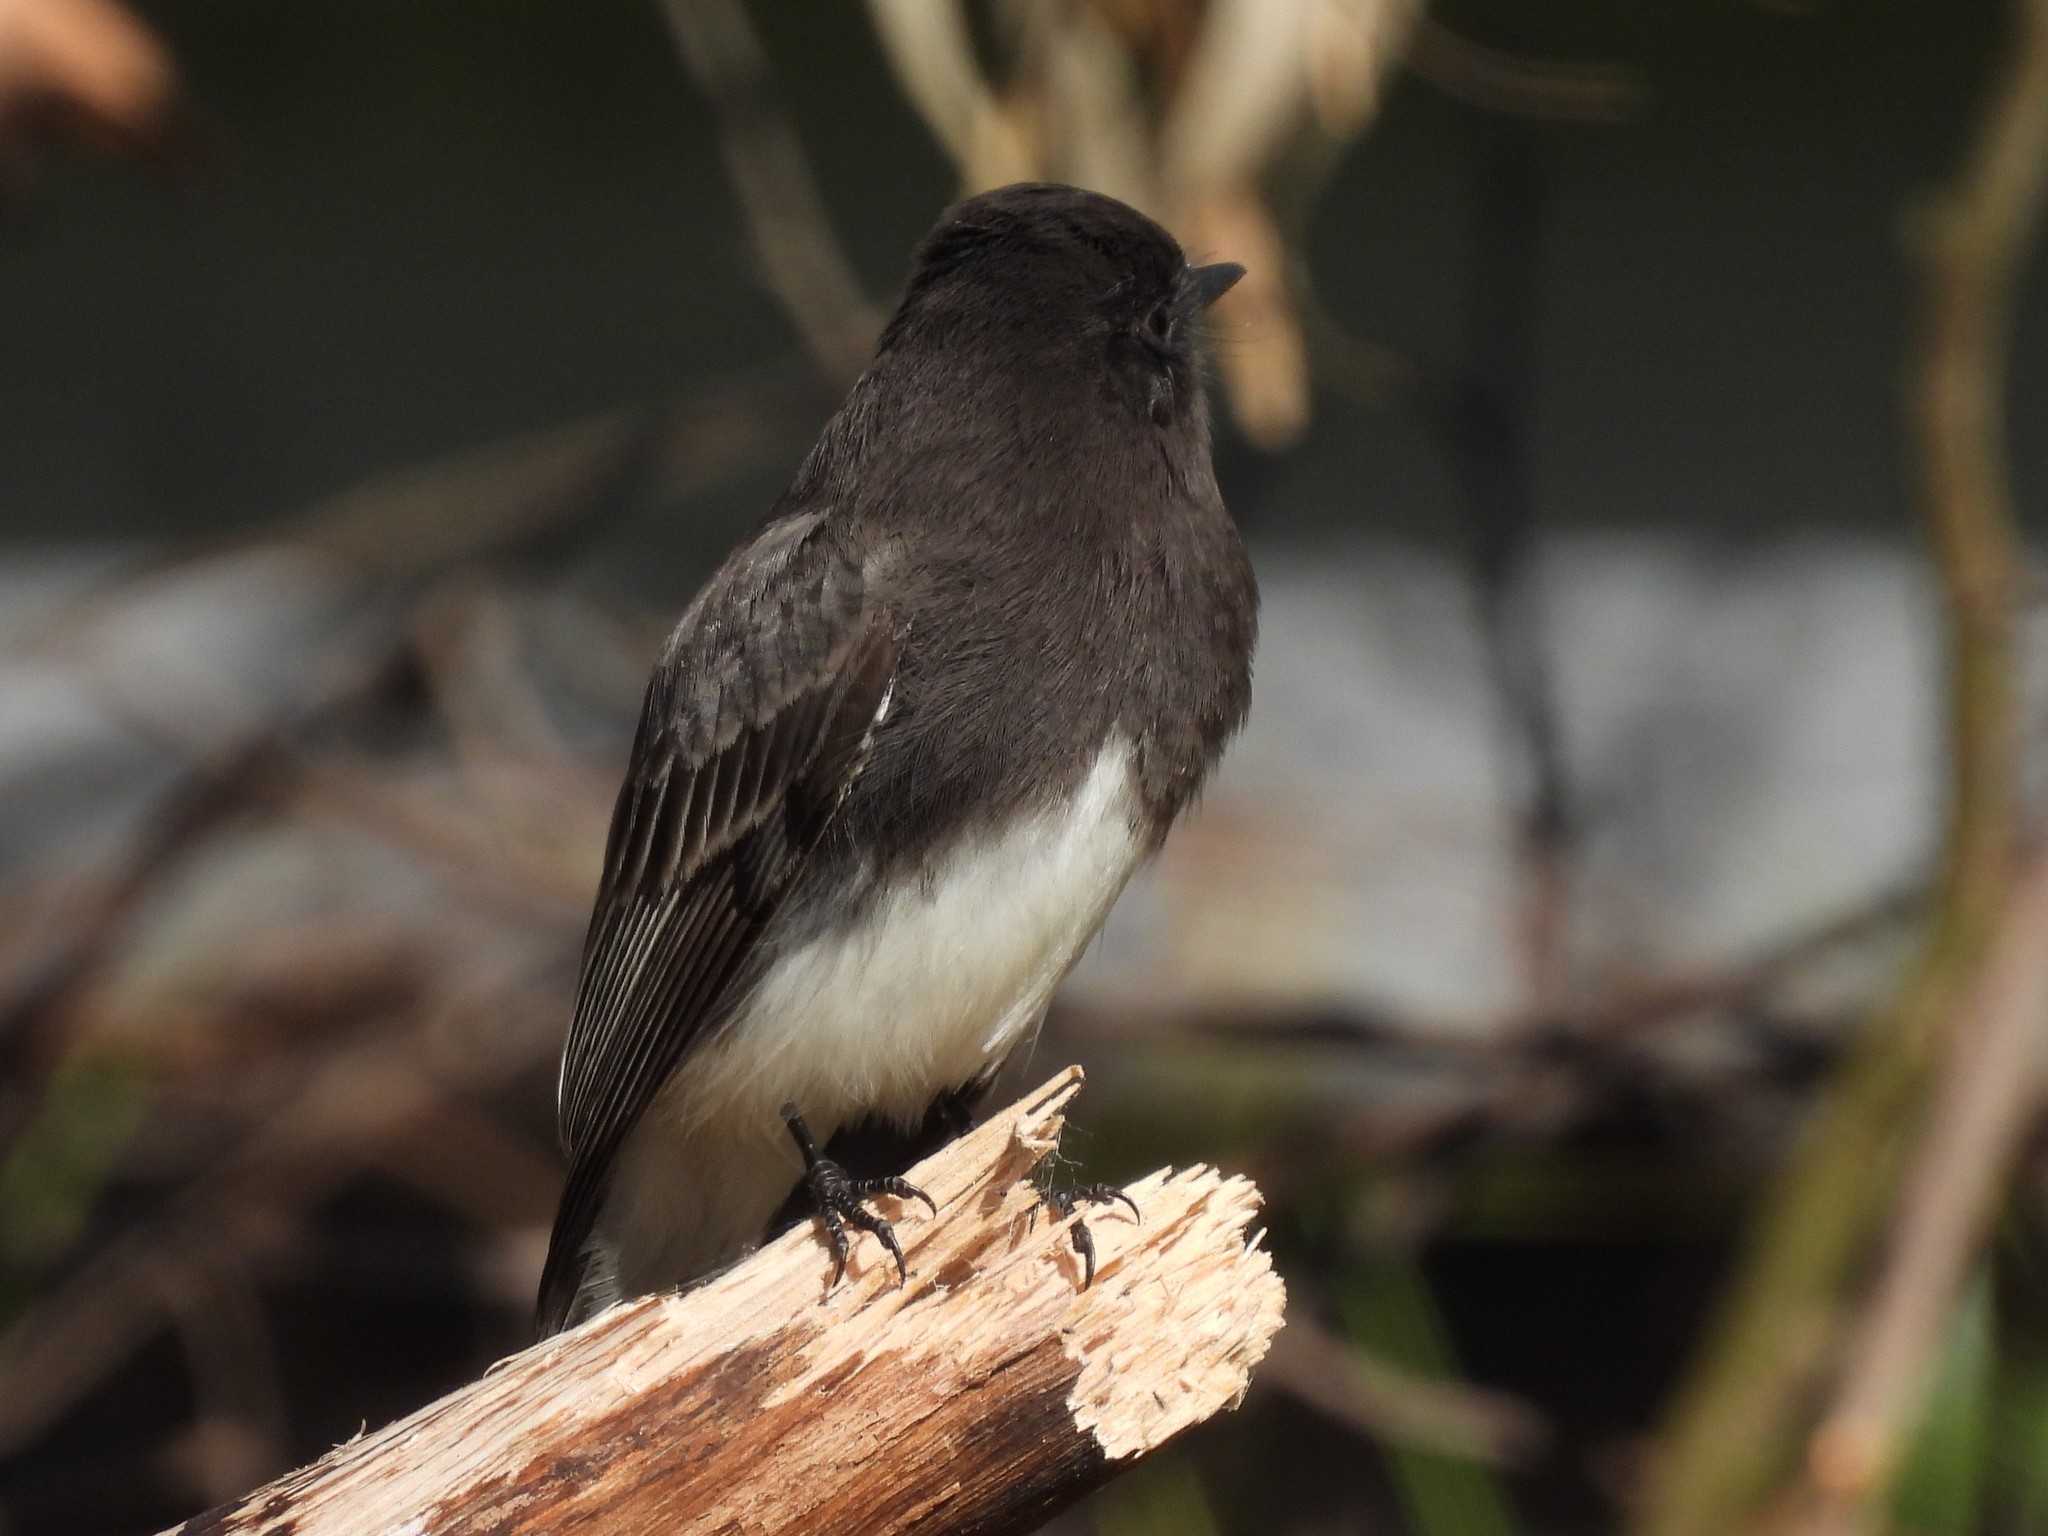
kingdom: Animalia
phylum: Chordata
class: Aves
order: Passeriformes
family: Tyrannidae
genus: Sayornis
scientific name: Sayornis nigricans
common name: Black phoebe
